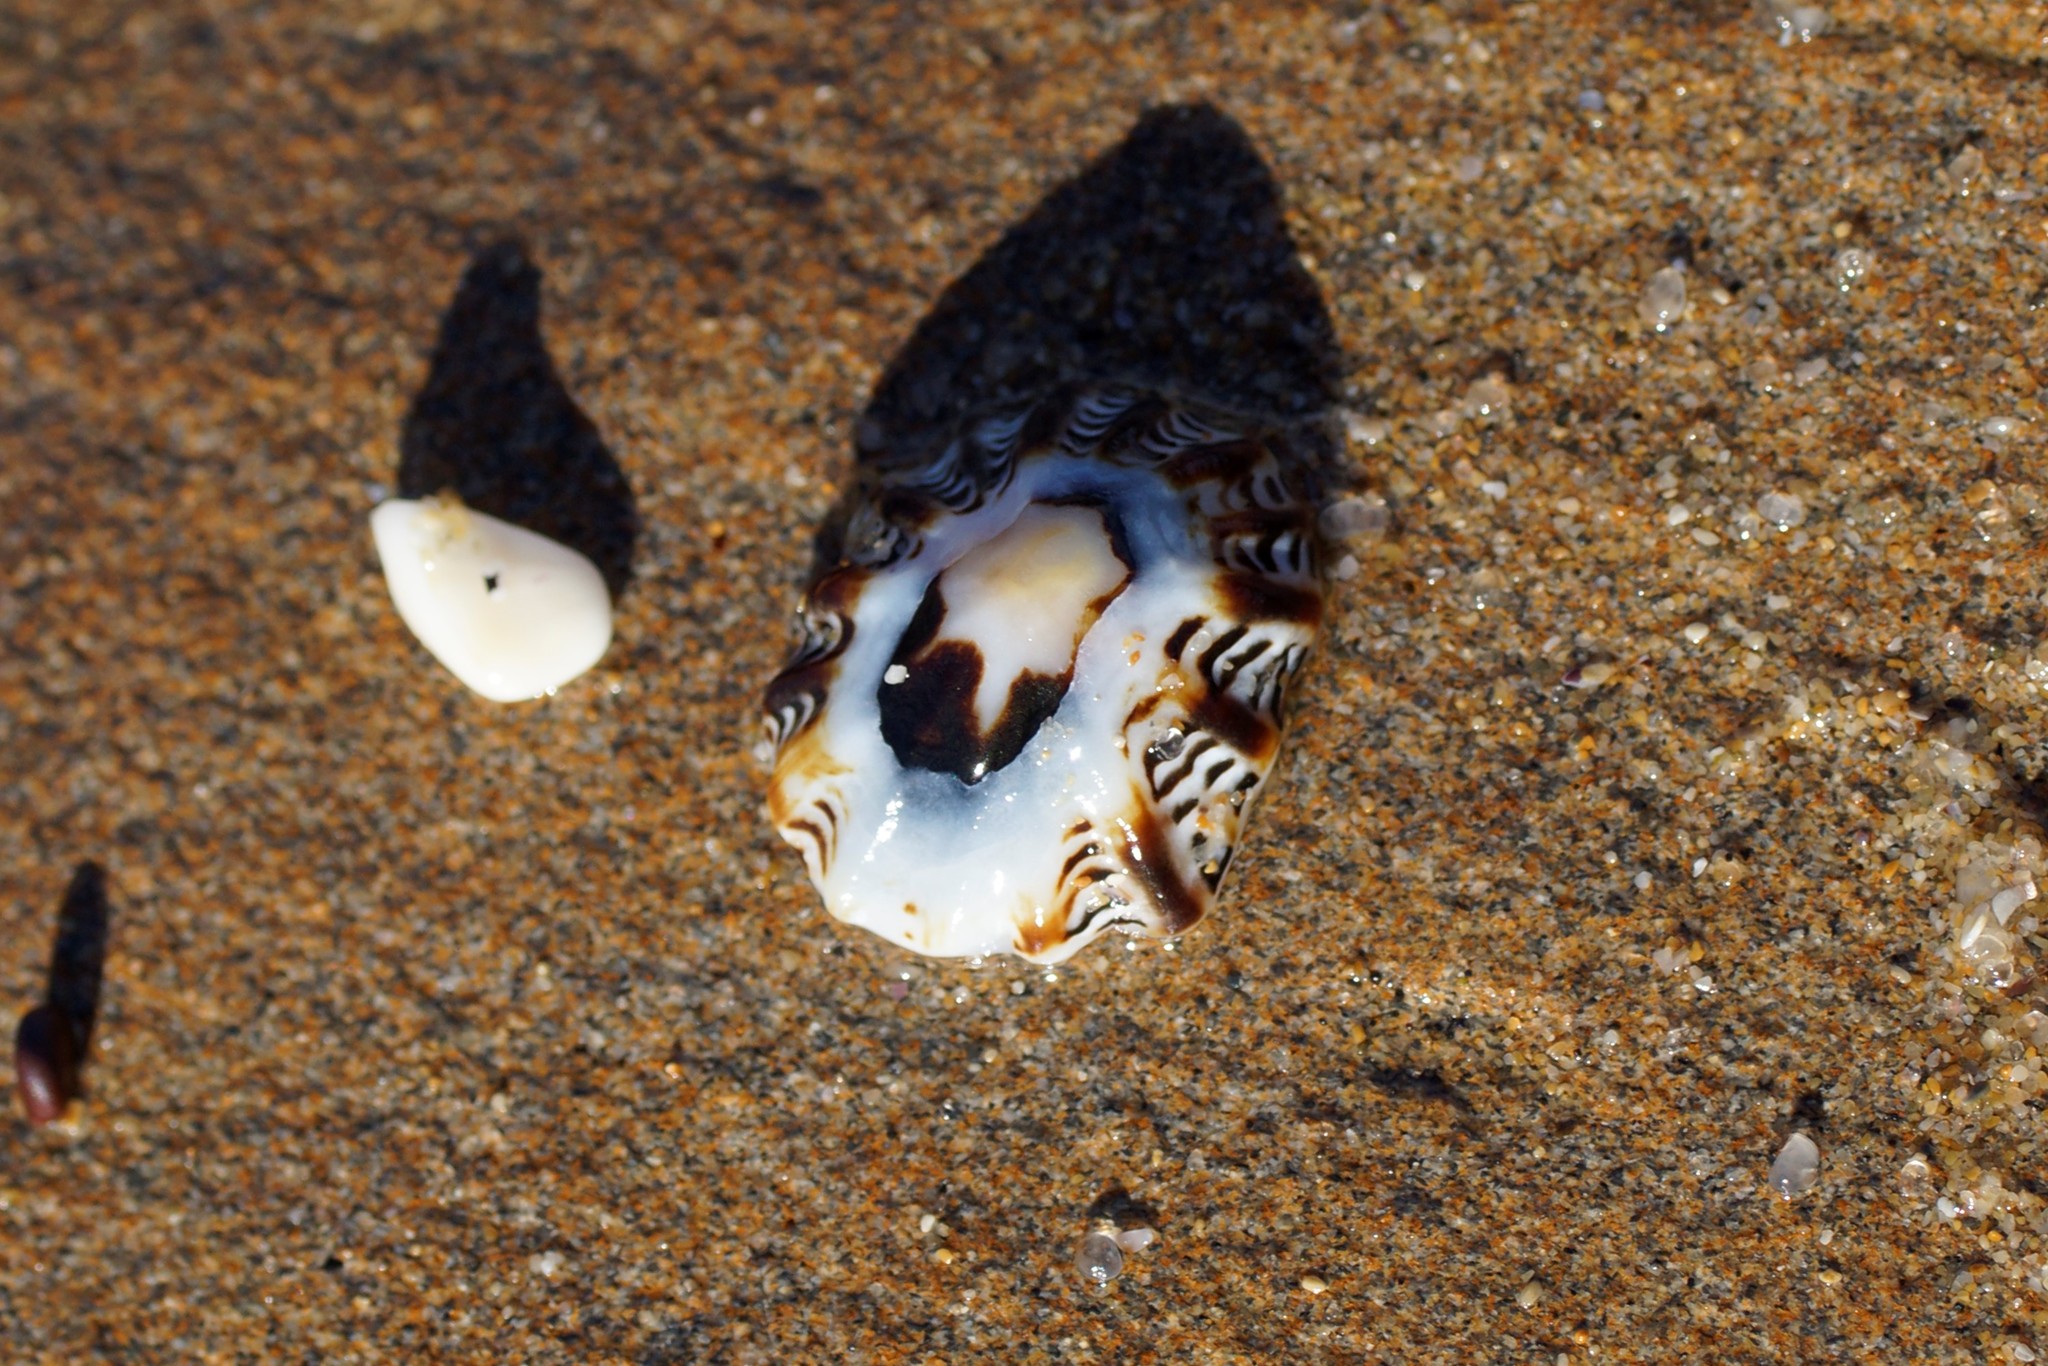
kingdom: Animalia
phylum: Mollusca
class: Gastropoda
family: Lottiidae
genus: Patelloida
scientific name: Patelloida alticostata
